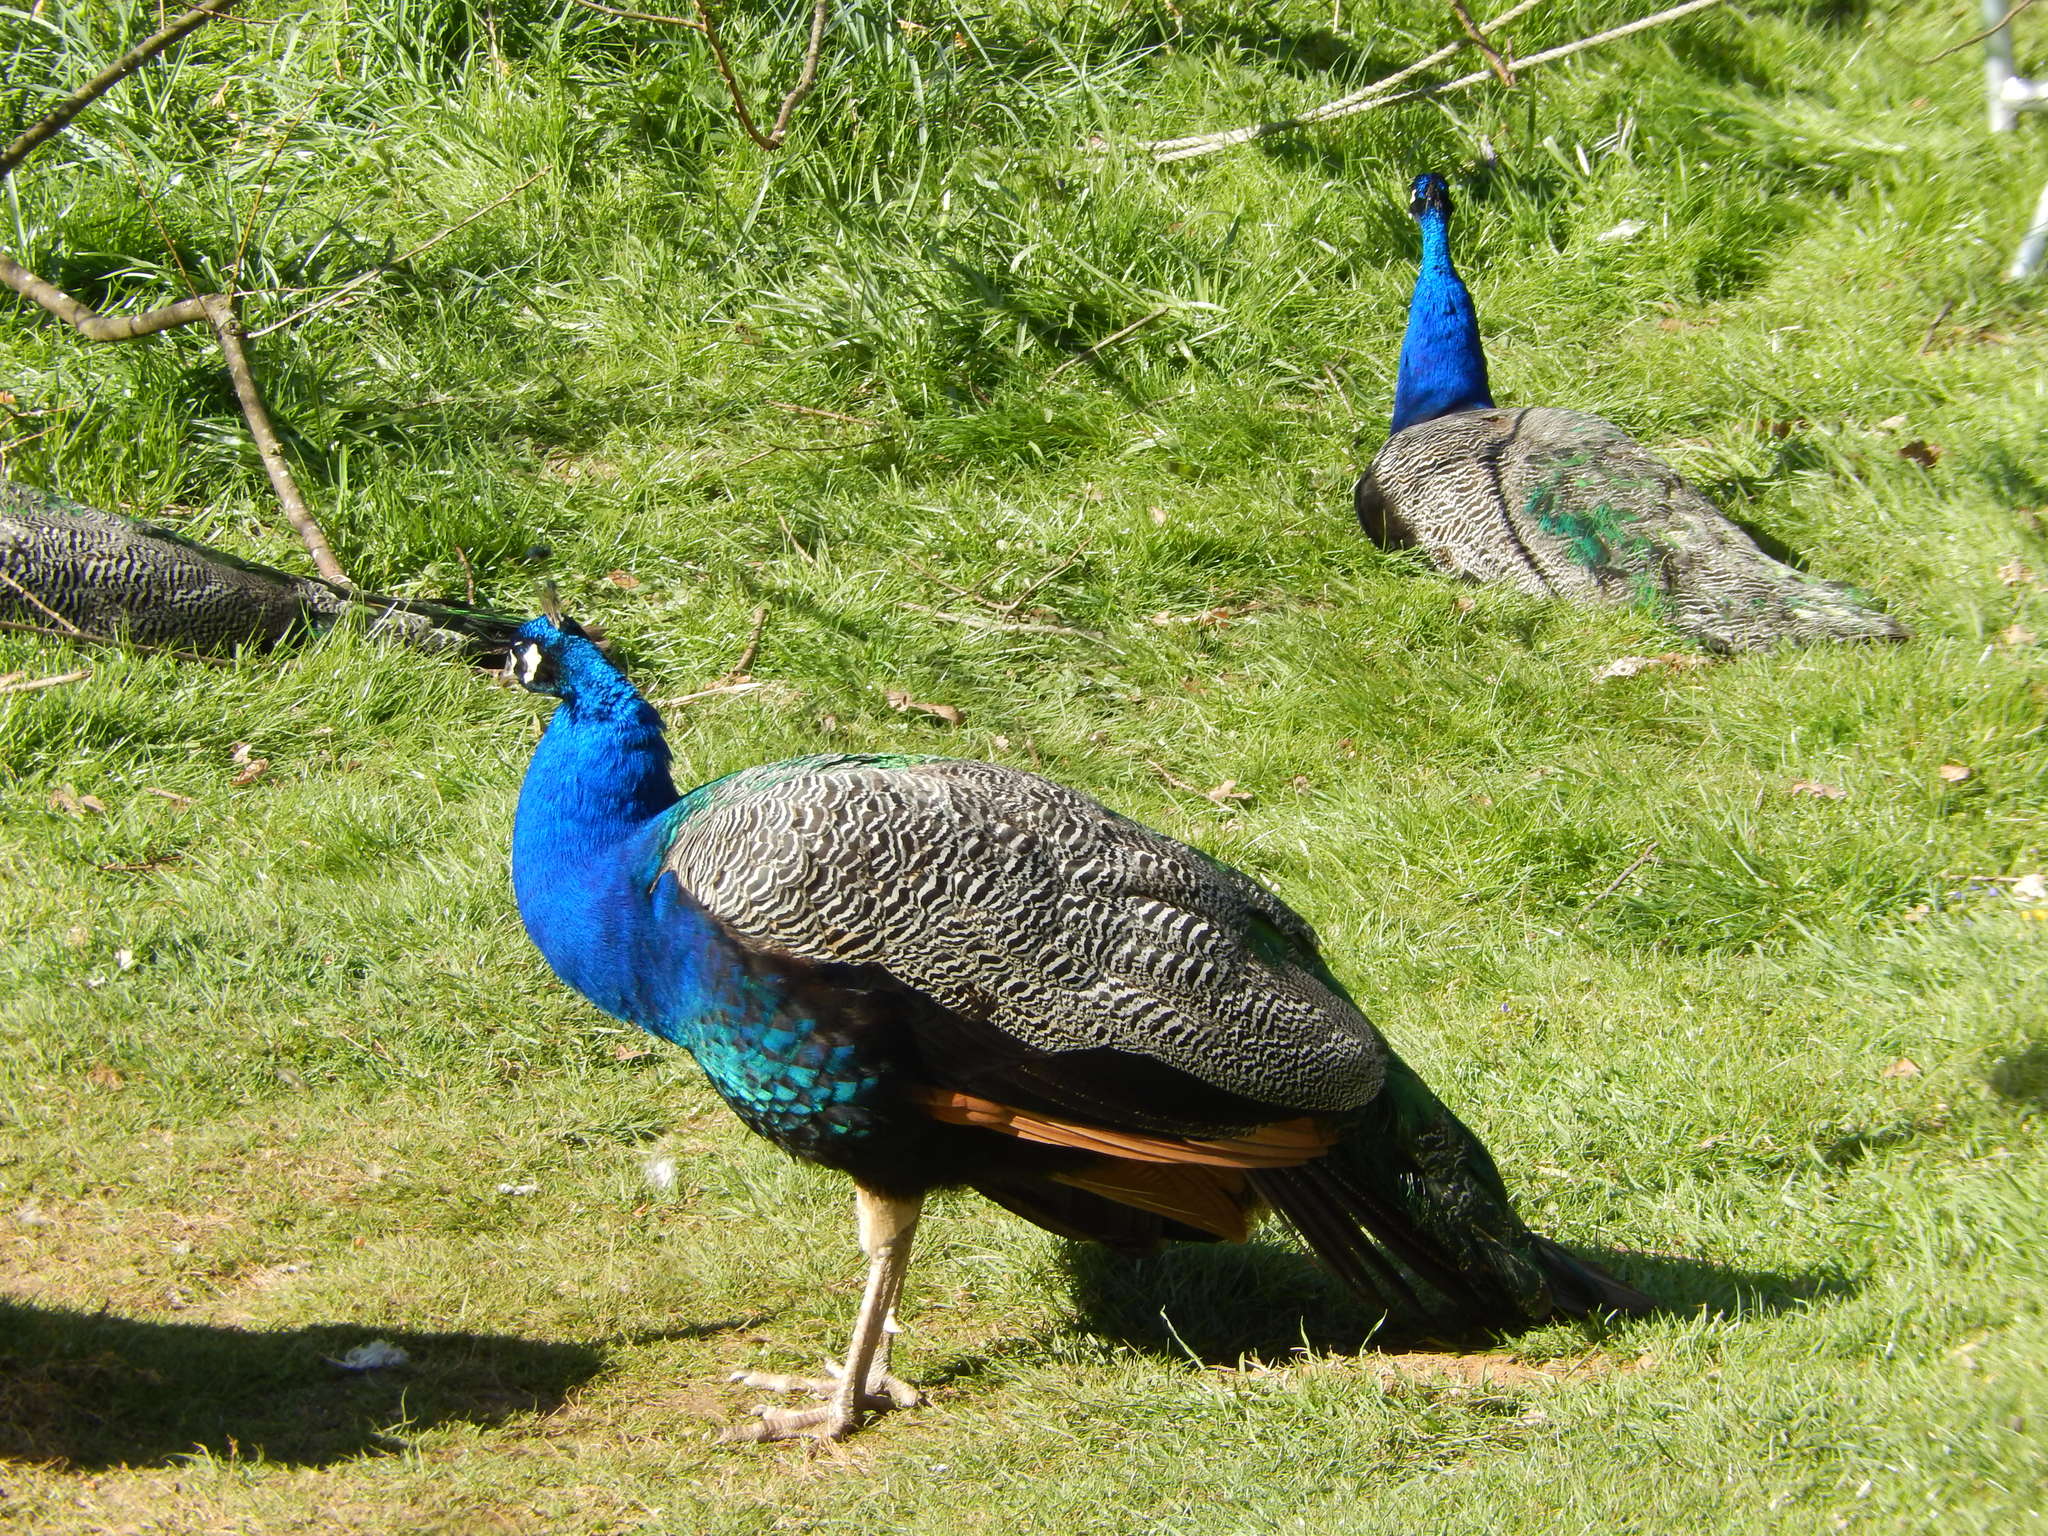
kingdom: Animalia
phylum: Chordata
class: Aves
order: Galliformes
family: Phasianidae
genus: Pavo
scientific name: Pavo cristatus
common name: Indian peafowl
